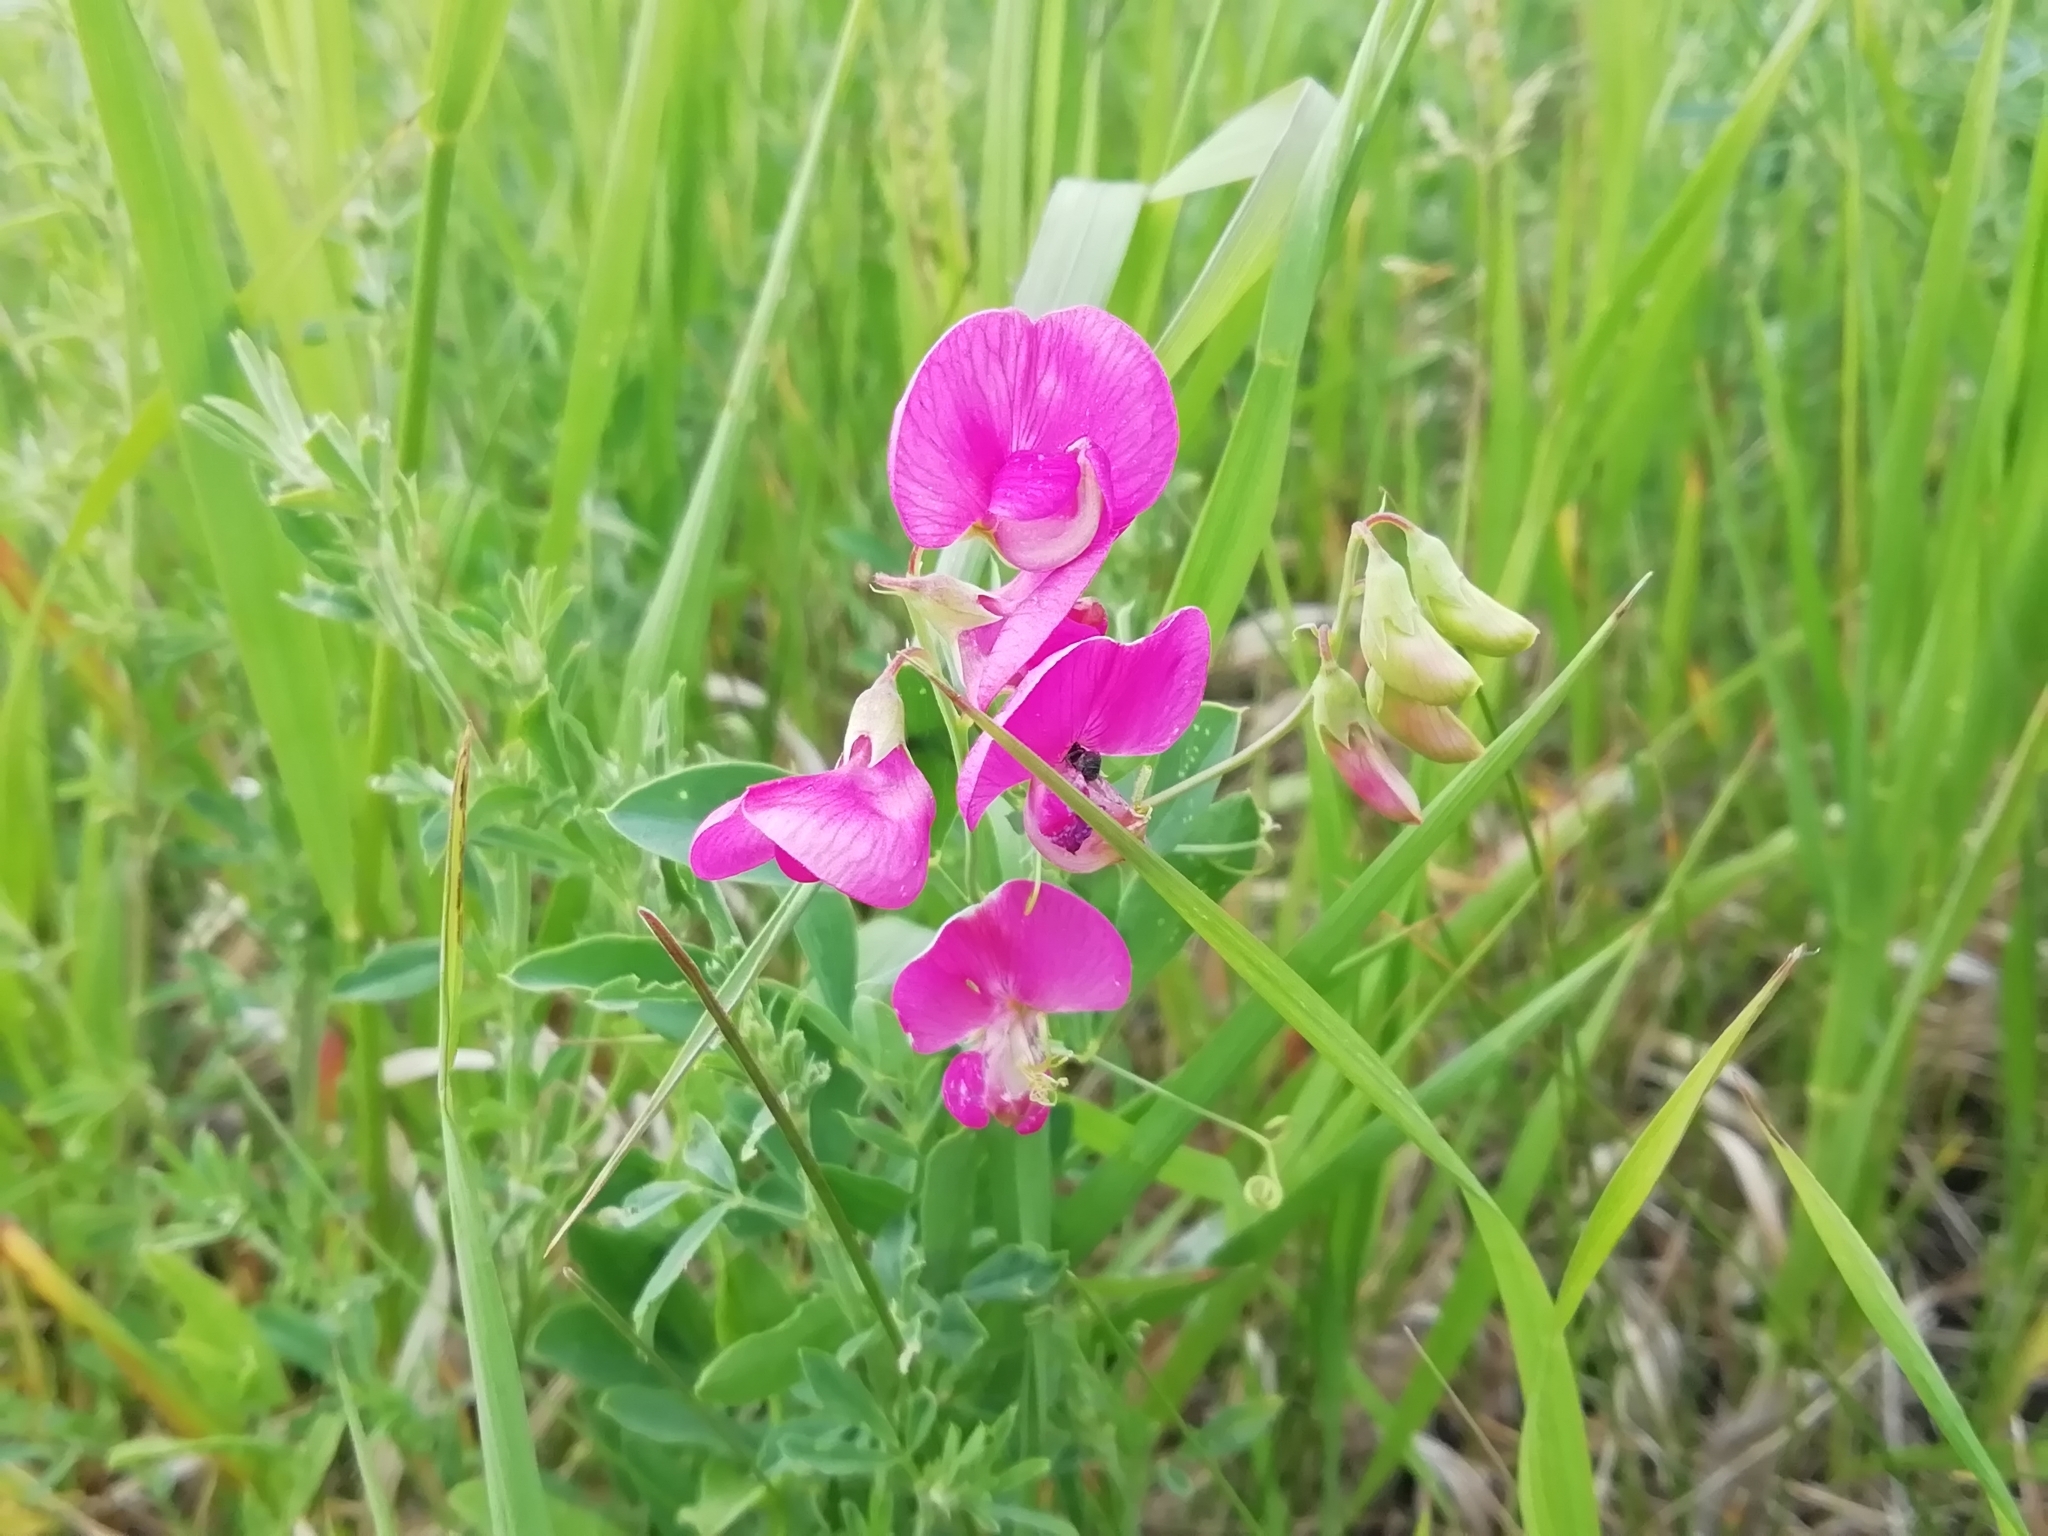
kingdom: Plantae
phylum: Tracheophyta
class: Magnoliopsida
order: Fabales
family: Fabaceae
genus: Lathyrus
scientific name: Lathyrus tuberosus
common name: Tuberous pea
